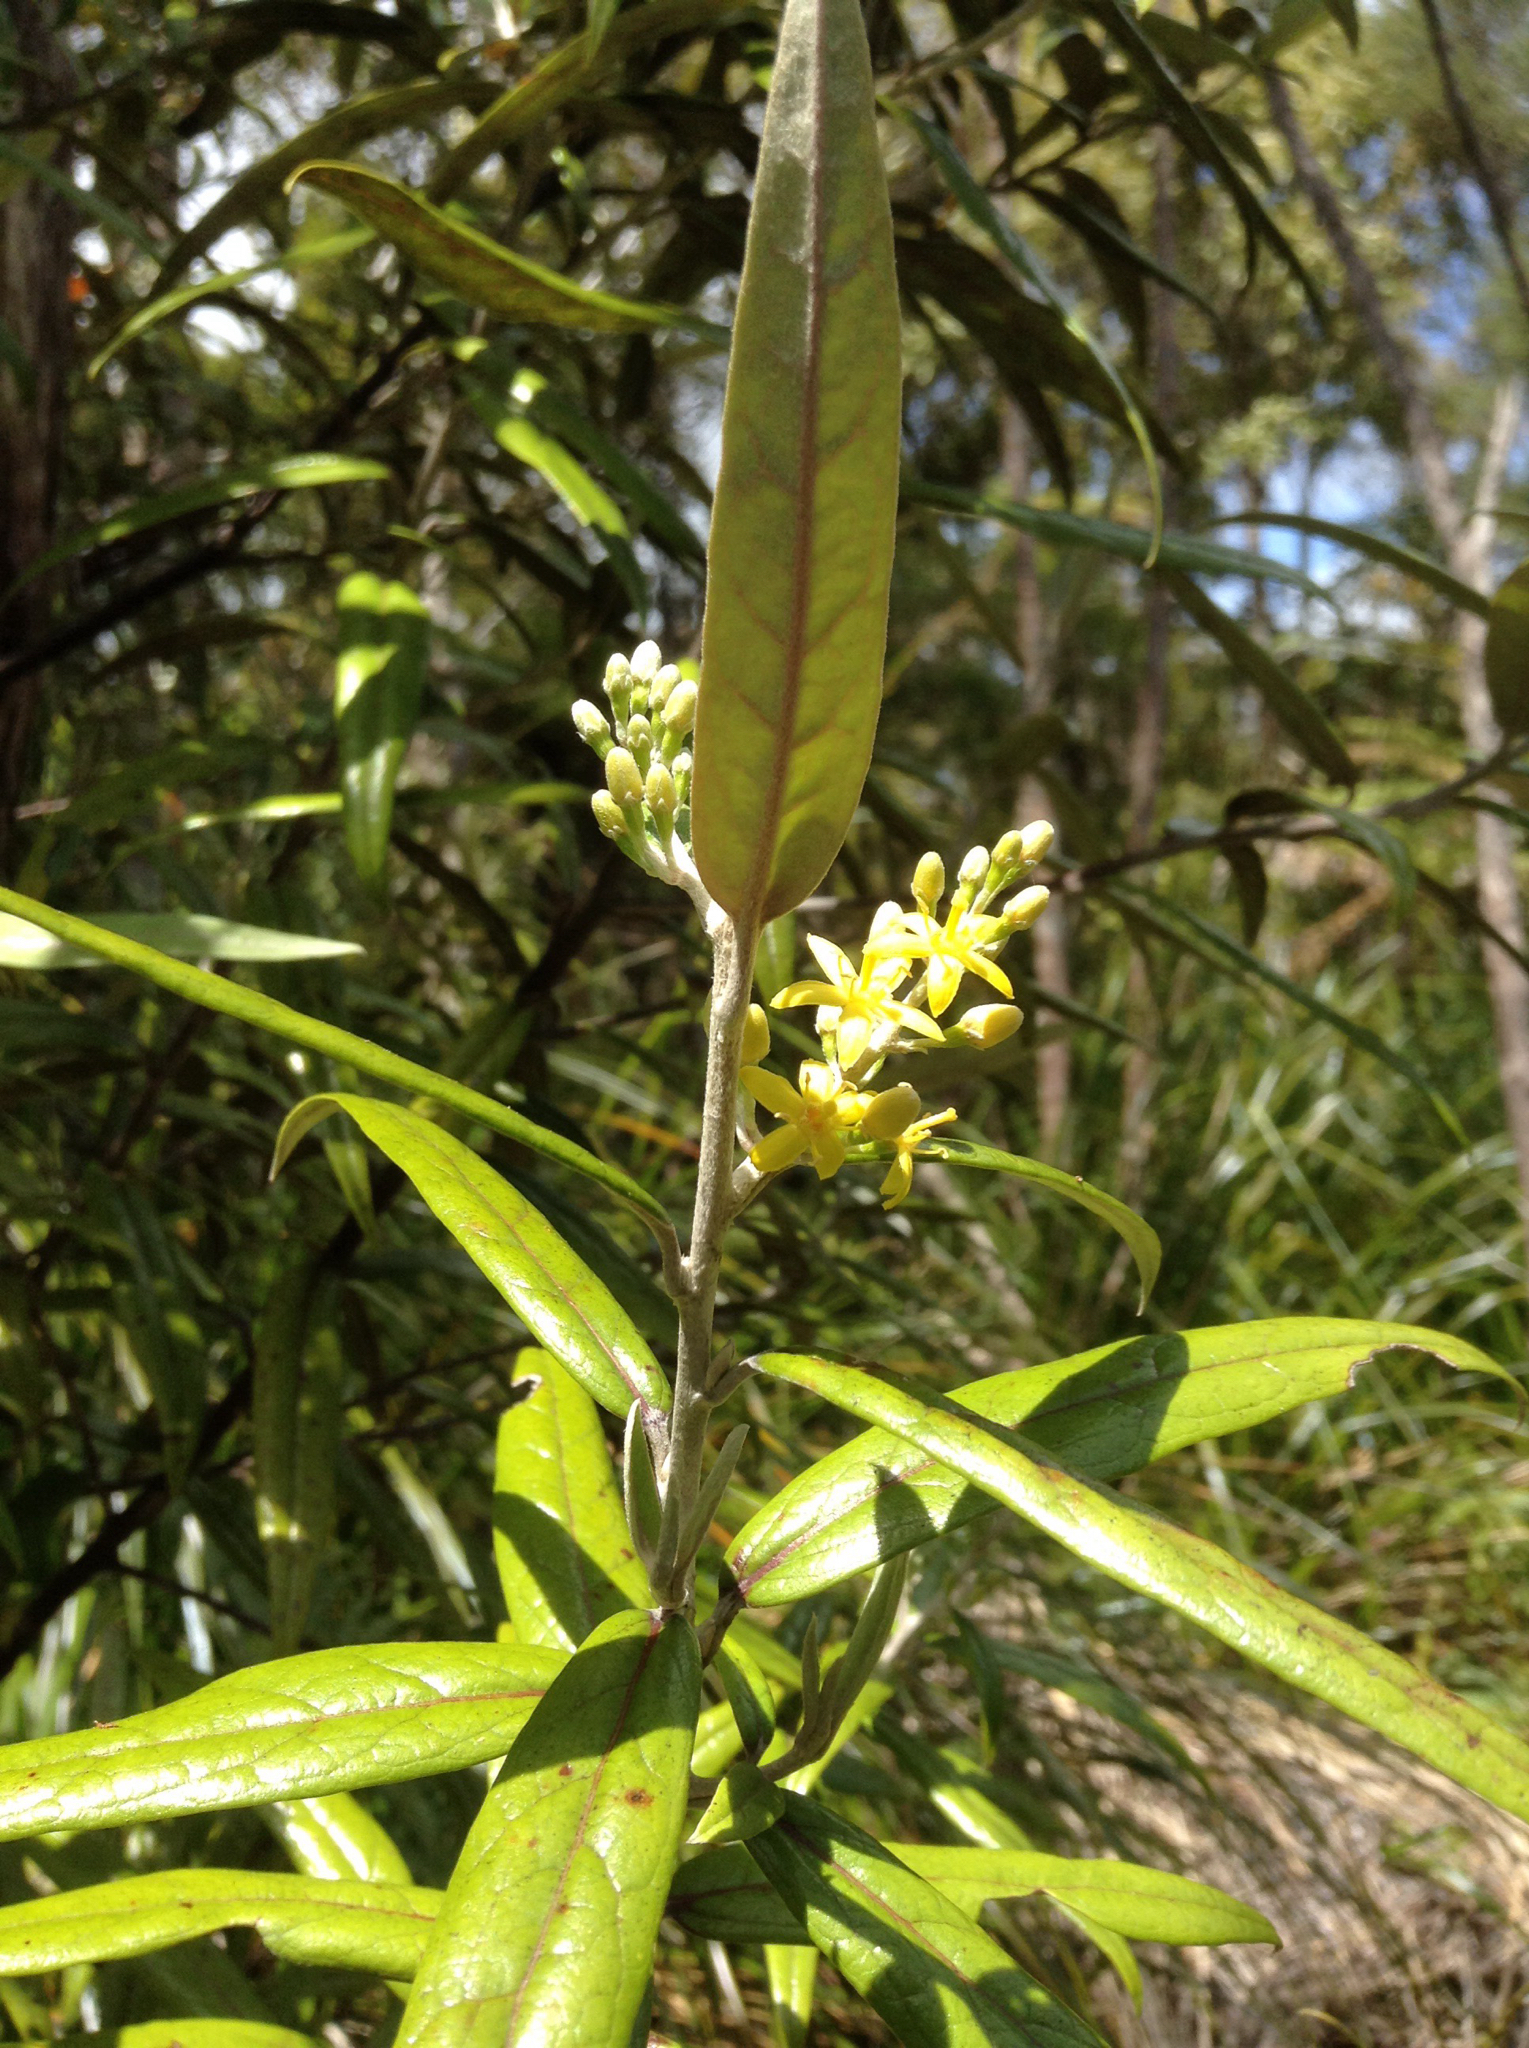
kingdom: Plantae
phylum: Tracheophyta
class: Magnoliopsida
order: Asterales
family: Argophyllaceae
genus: Corokia
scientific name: Corokia buddleioides
